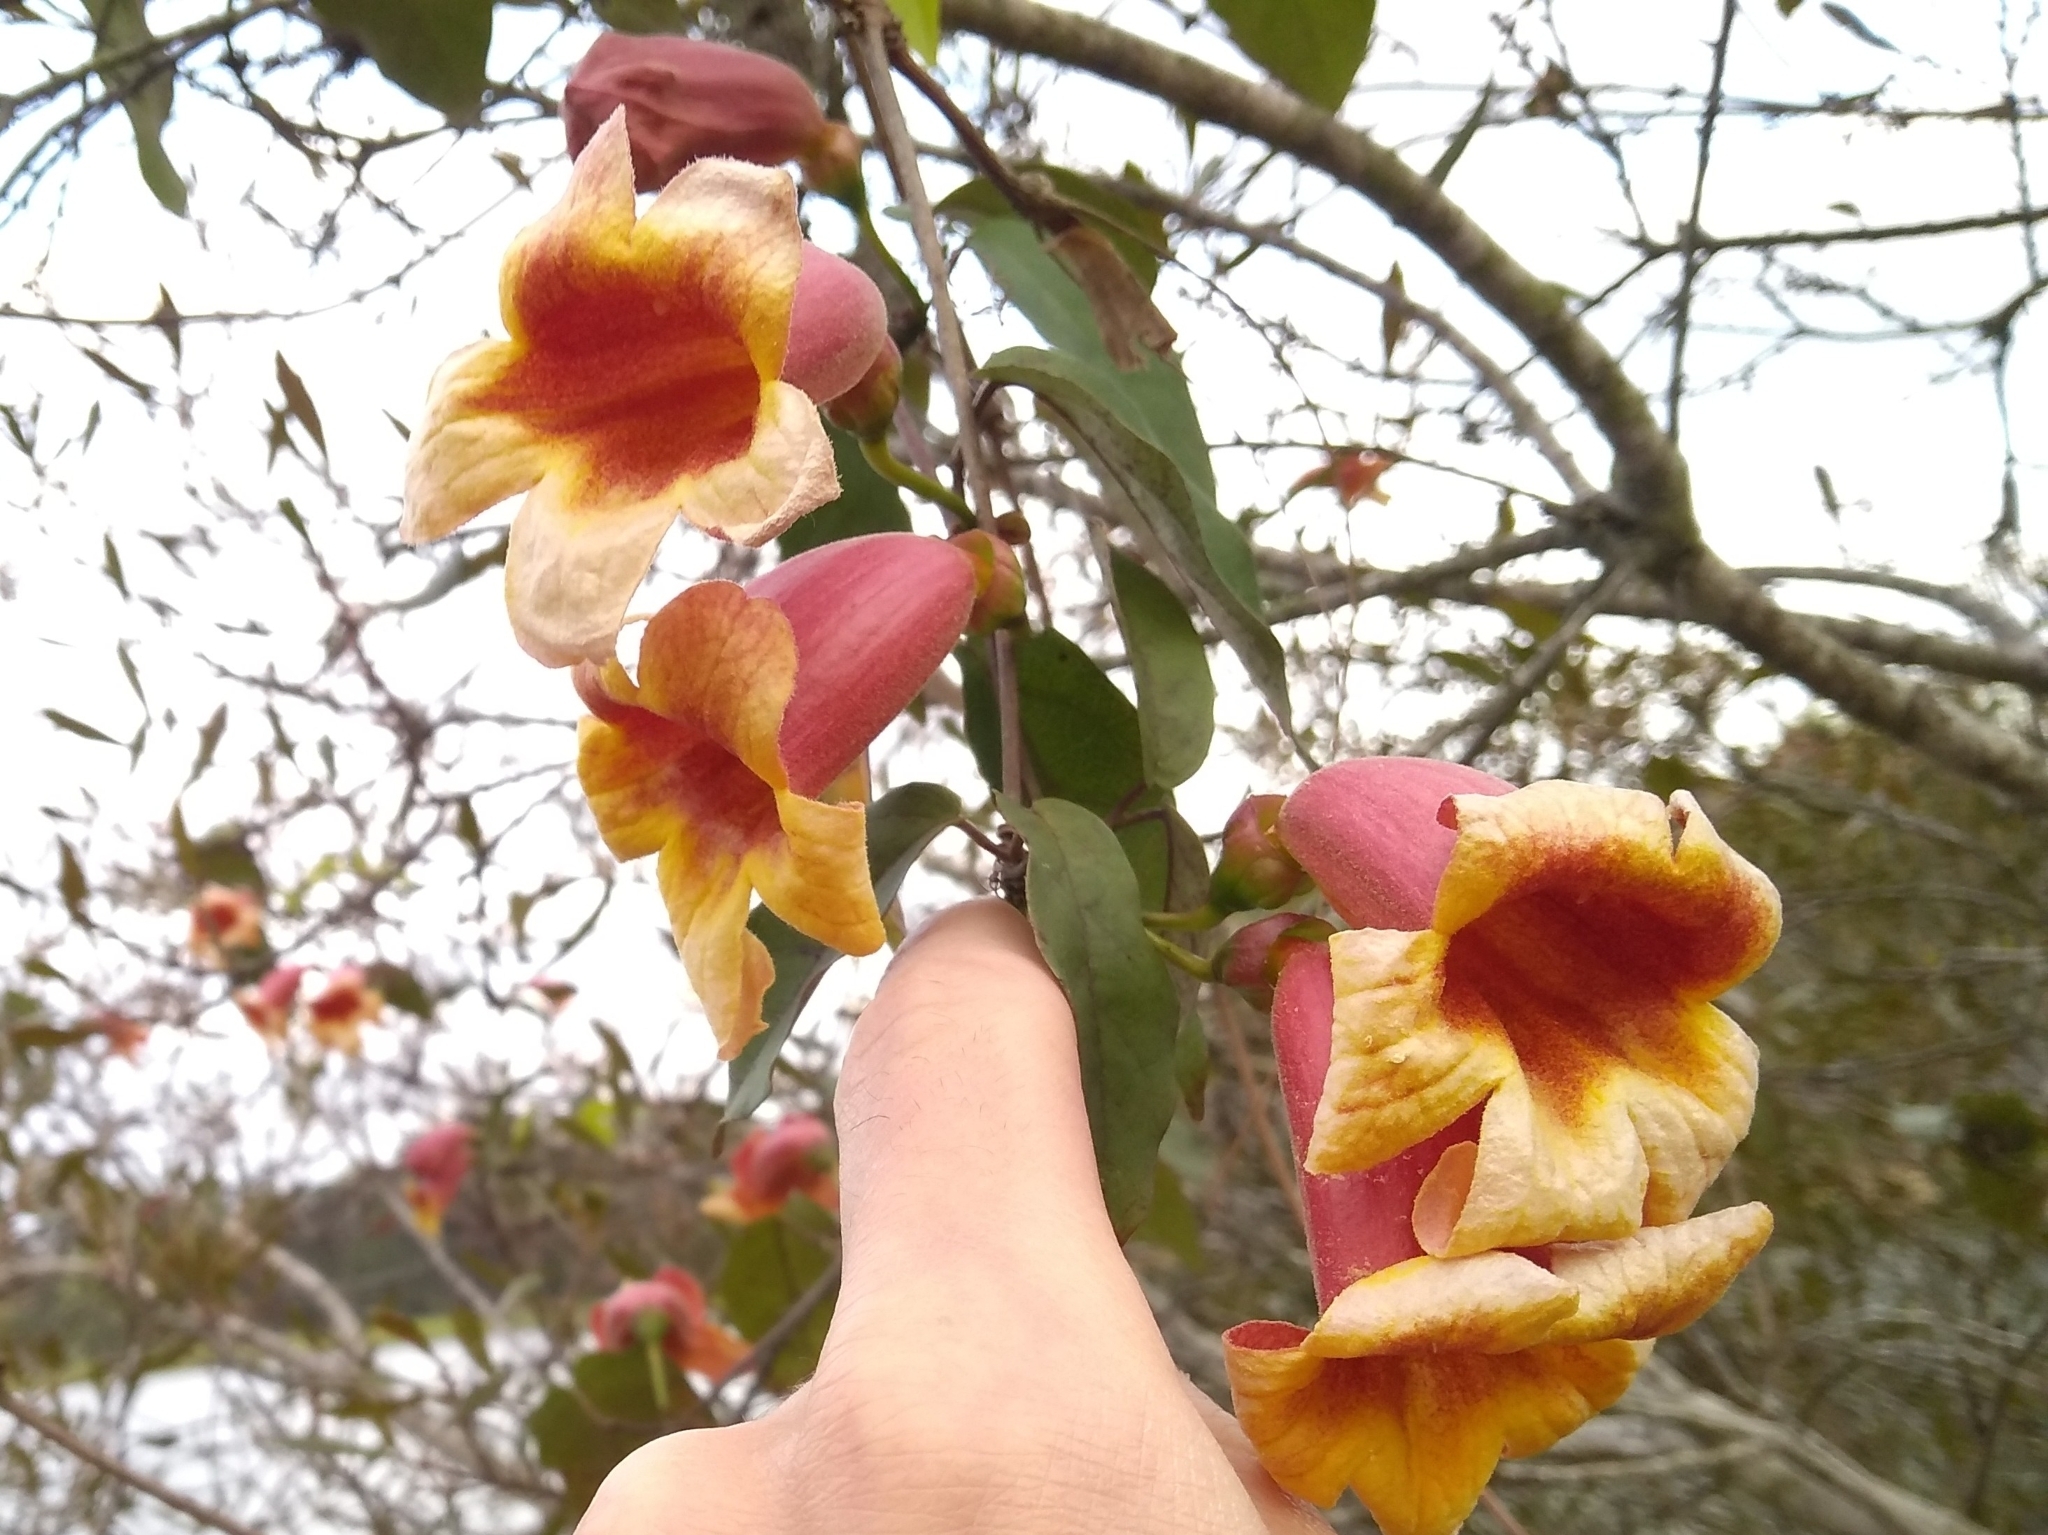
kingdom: Plantae
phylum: Tracheophyta
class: Magnoliopsida
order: Lamiales
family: Bignoniaceae
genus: Bignonia
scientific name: Bignonia capreolata
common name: Crossvine
